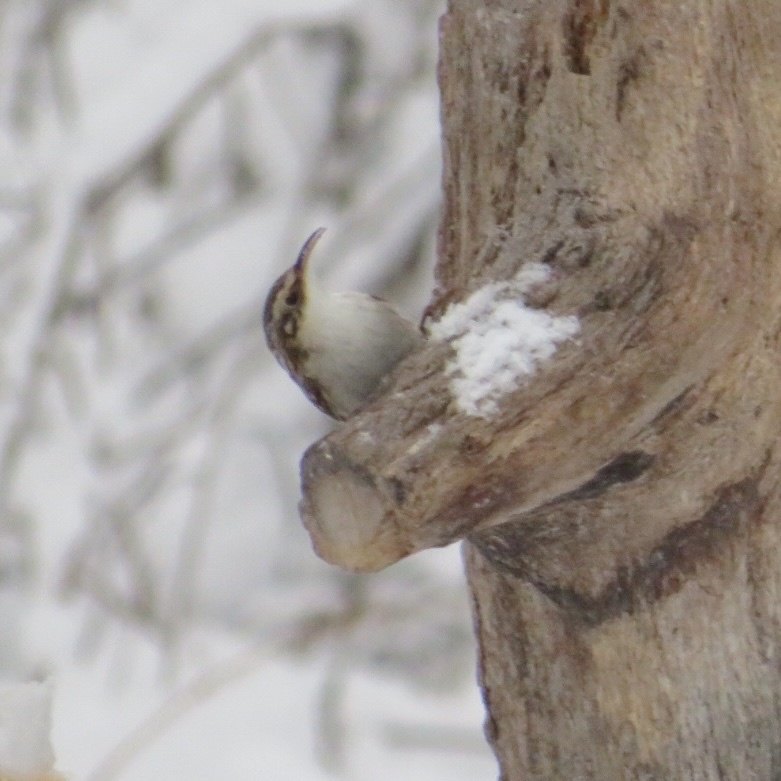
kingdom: Animalia
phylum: Chordata
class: Aves
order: Passeriformes
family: Certhiidae
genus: Certhia
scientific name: Certhia americana
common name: Brown creeper
